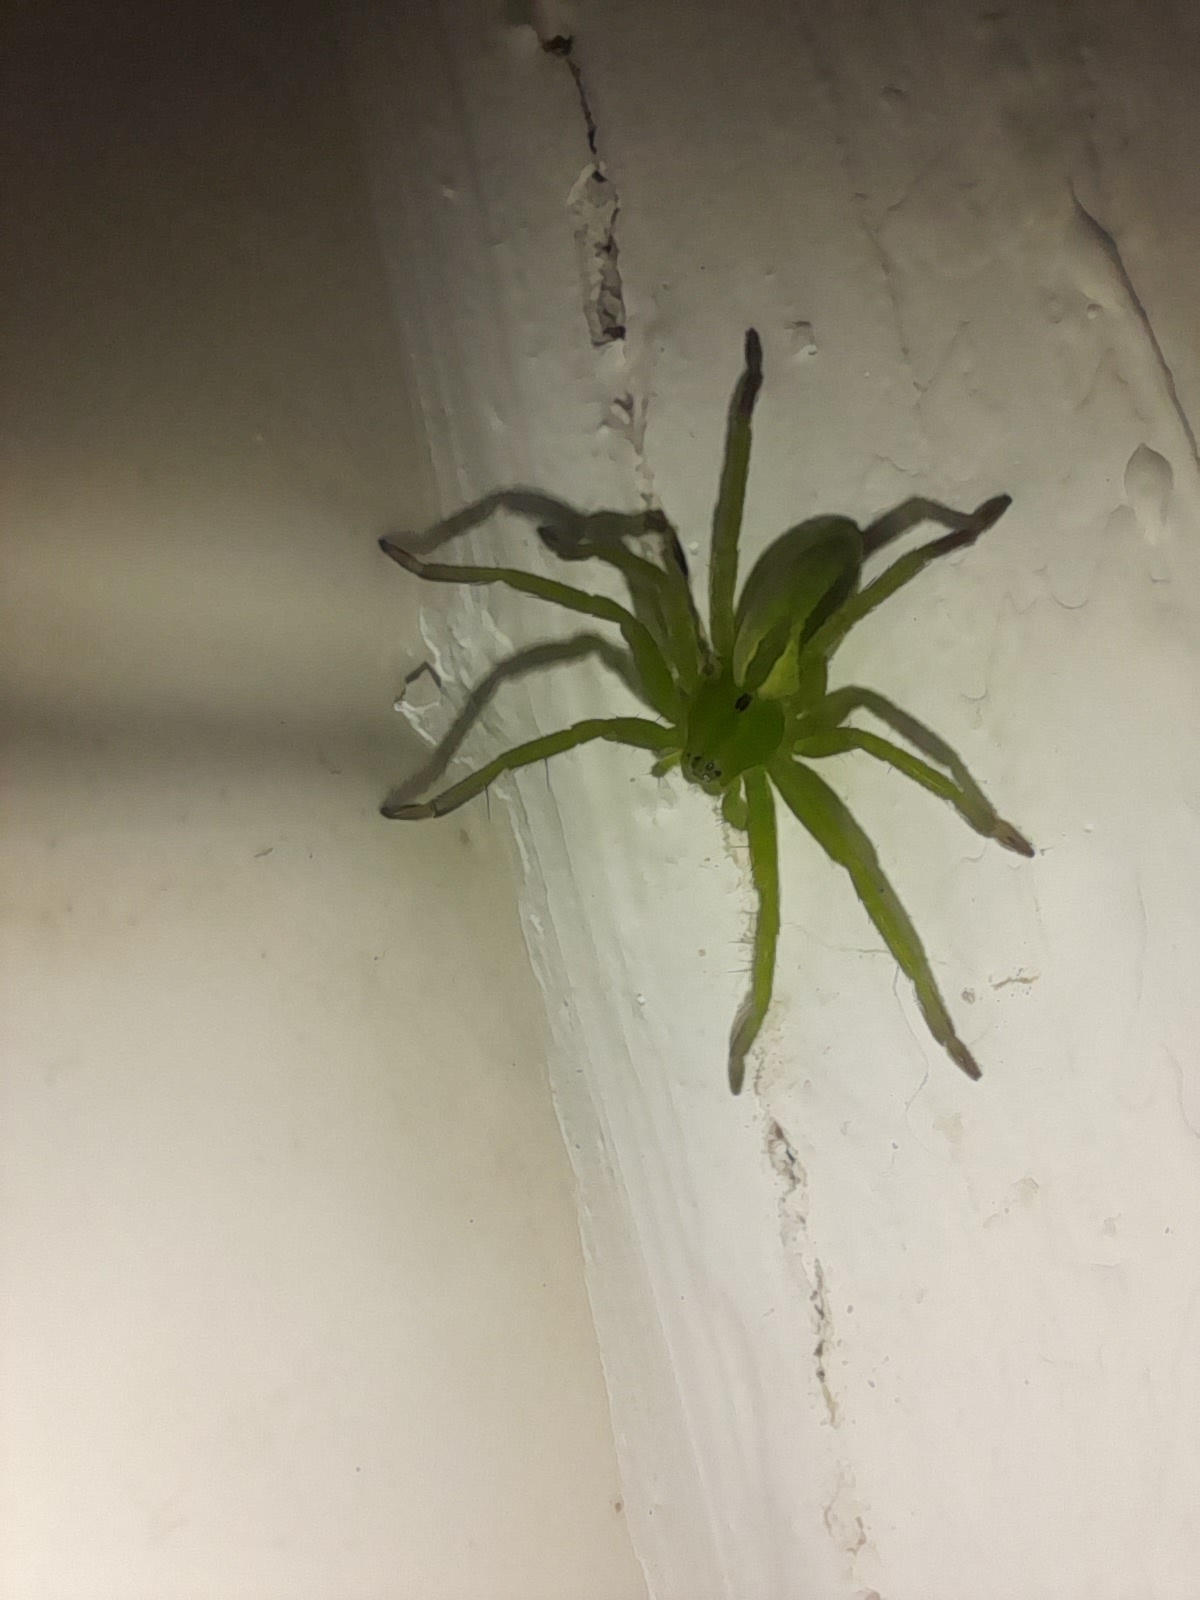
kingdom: Animalia
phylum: Arthropoda
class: Arachnida
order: Araneae
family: Sparassidae
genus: Micrommata
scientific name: Micrommata ligurina
